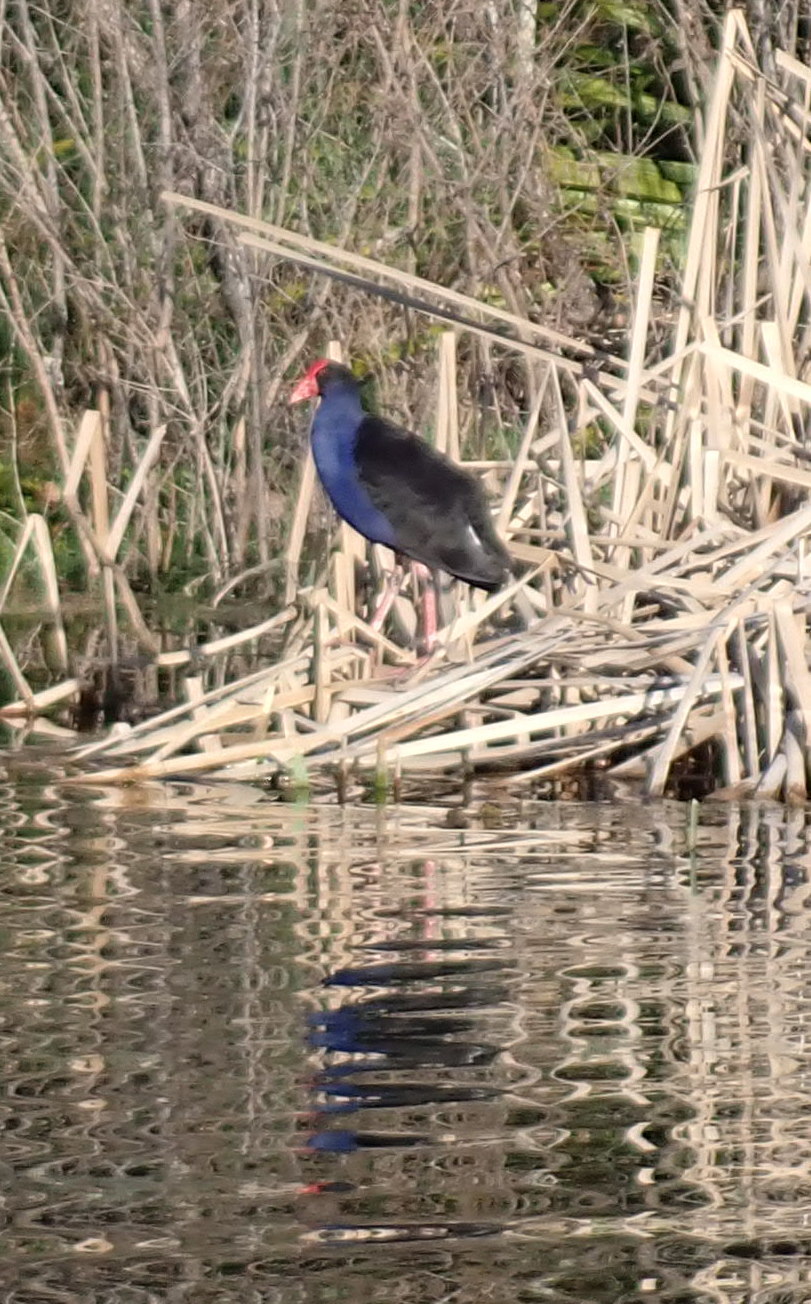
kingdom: Animalia
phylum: Chordata
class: Aves
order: Gruiformes
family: Rallidae
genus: Porphyrio
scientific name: Porphyrio melanotus
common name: Australasian swamphen
